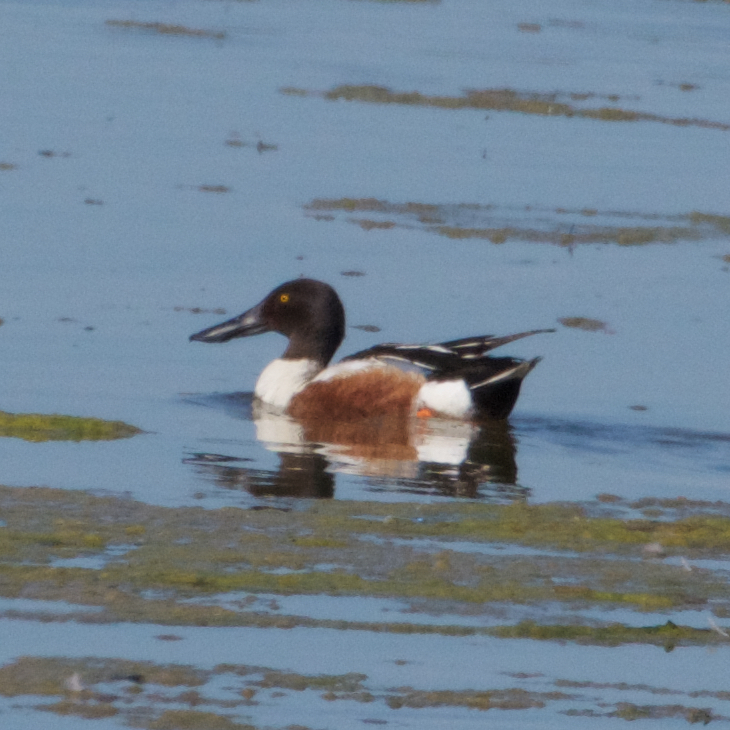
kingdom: Animalia
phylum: Chordata
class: Aves
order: Anseriformes
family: Anatidae
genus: Spatula
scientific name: Spatula clypeata
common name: Northern shoveler
